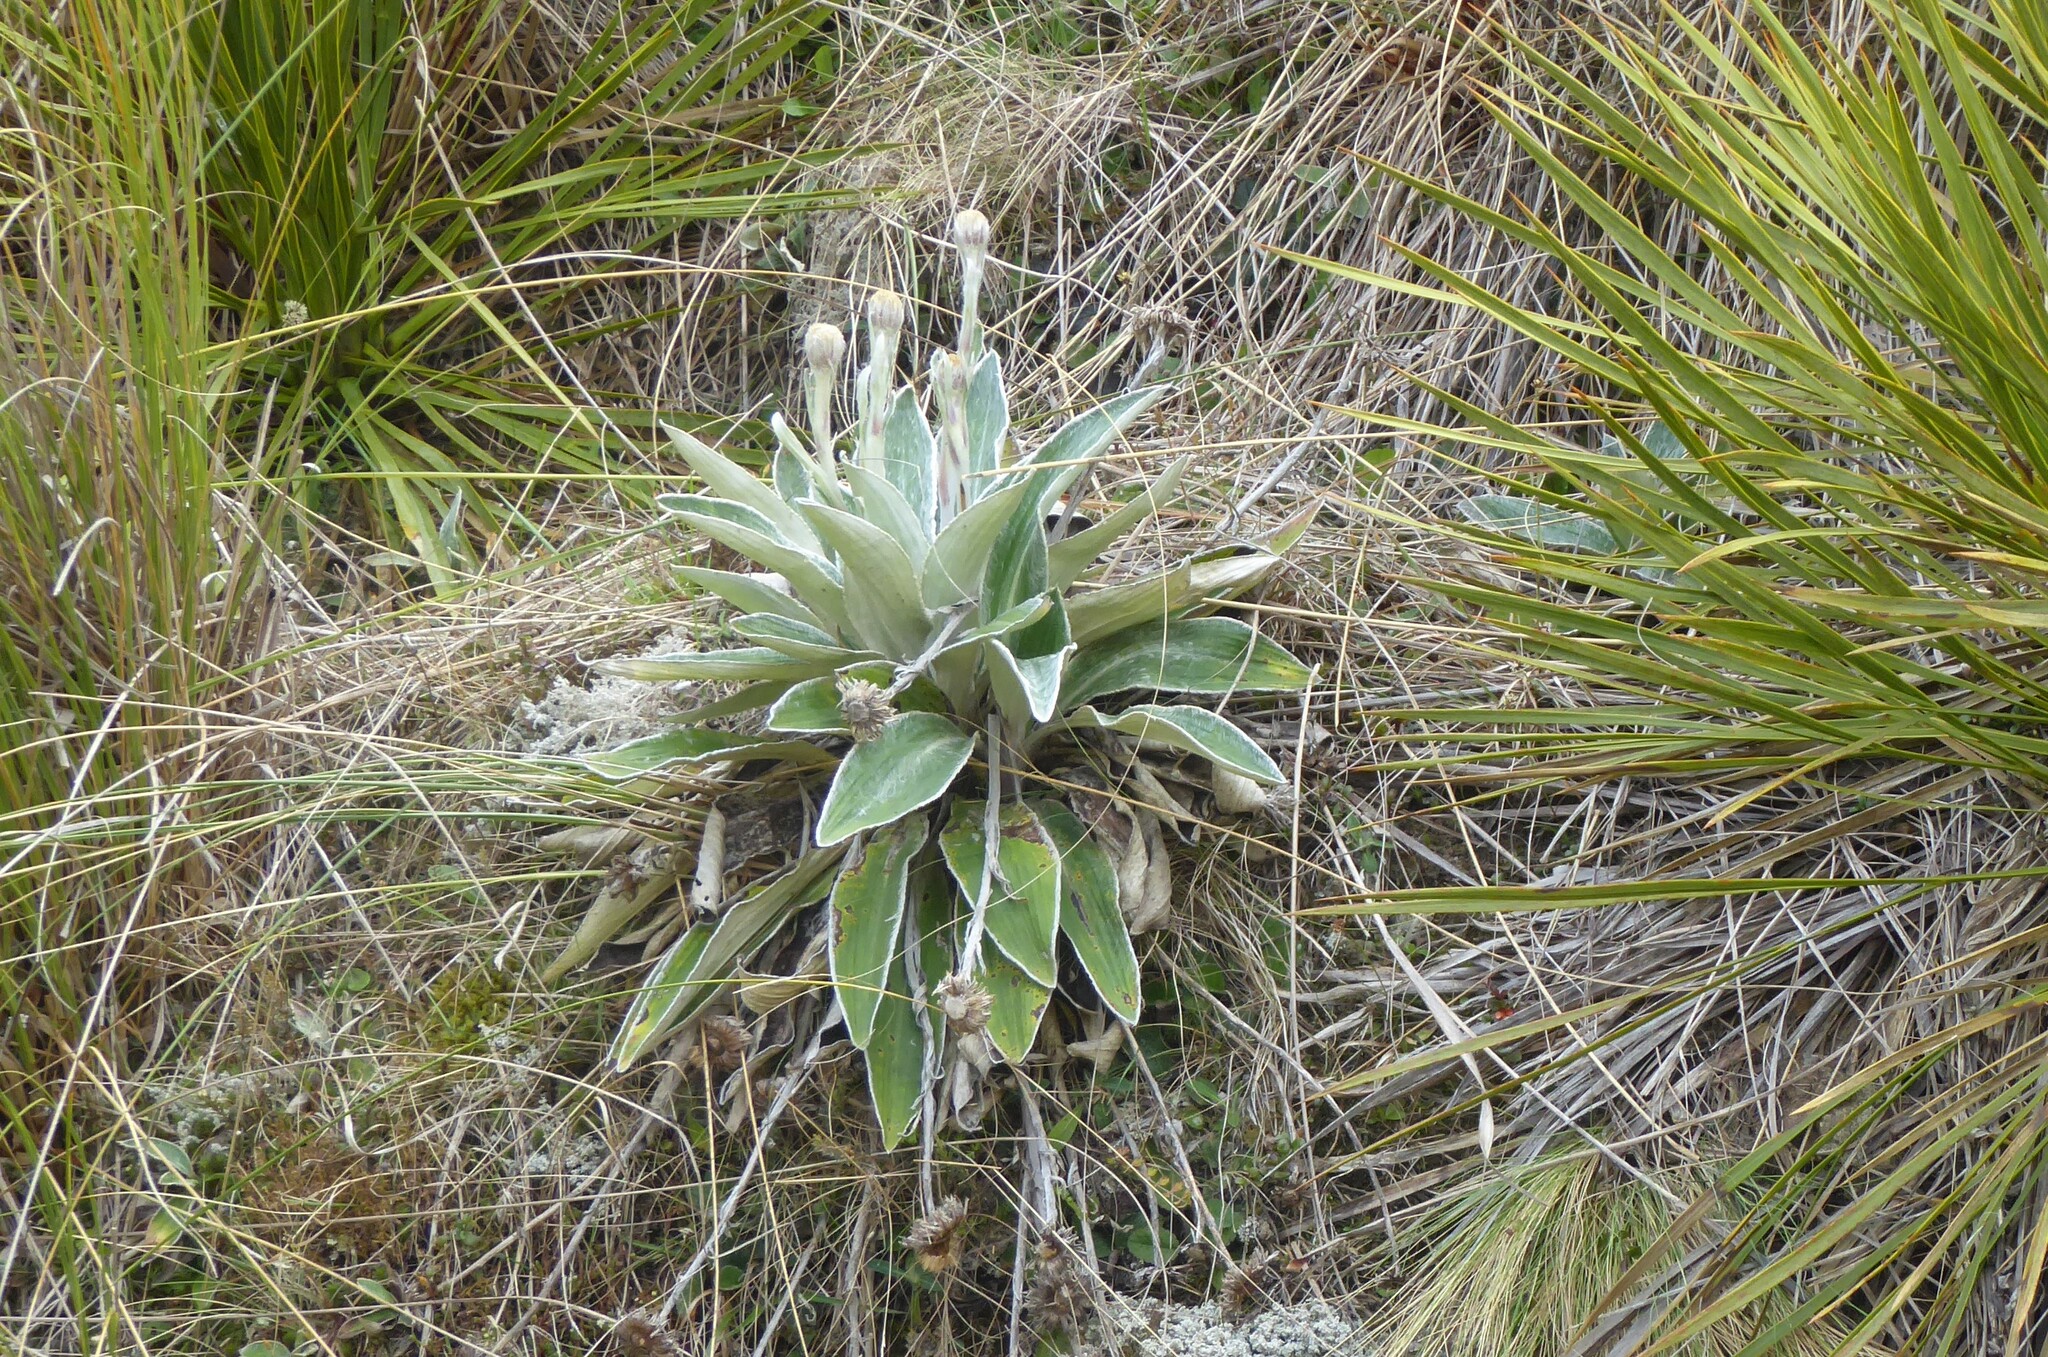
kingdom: Plantae
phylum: Tracheophyta
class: Magnoliopsida
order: Asterales
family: Asteraceae
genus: Celmisia
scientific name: Celmisia hookeri
